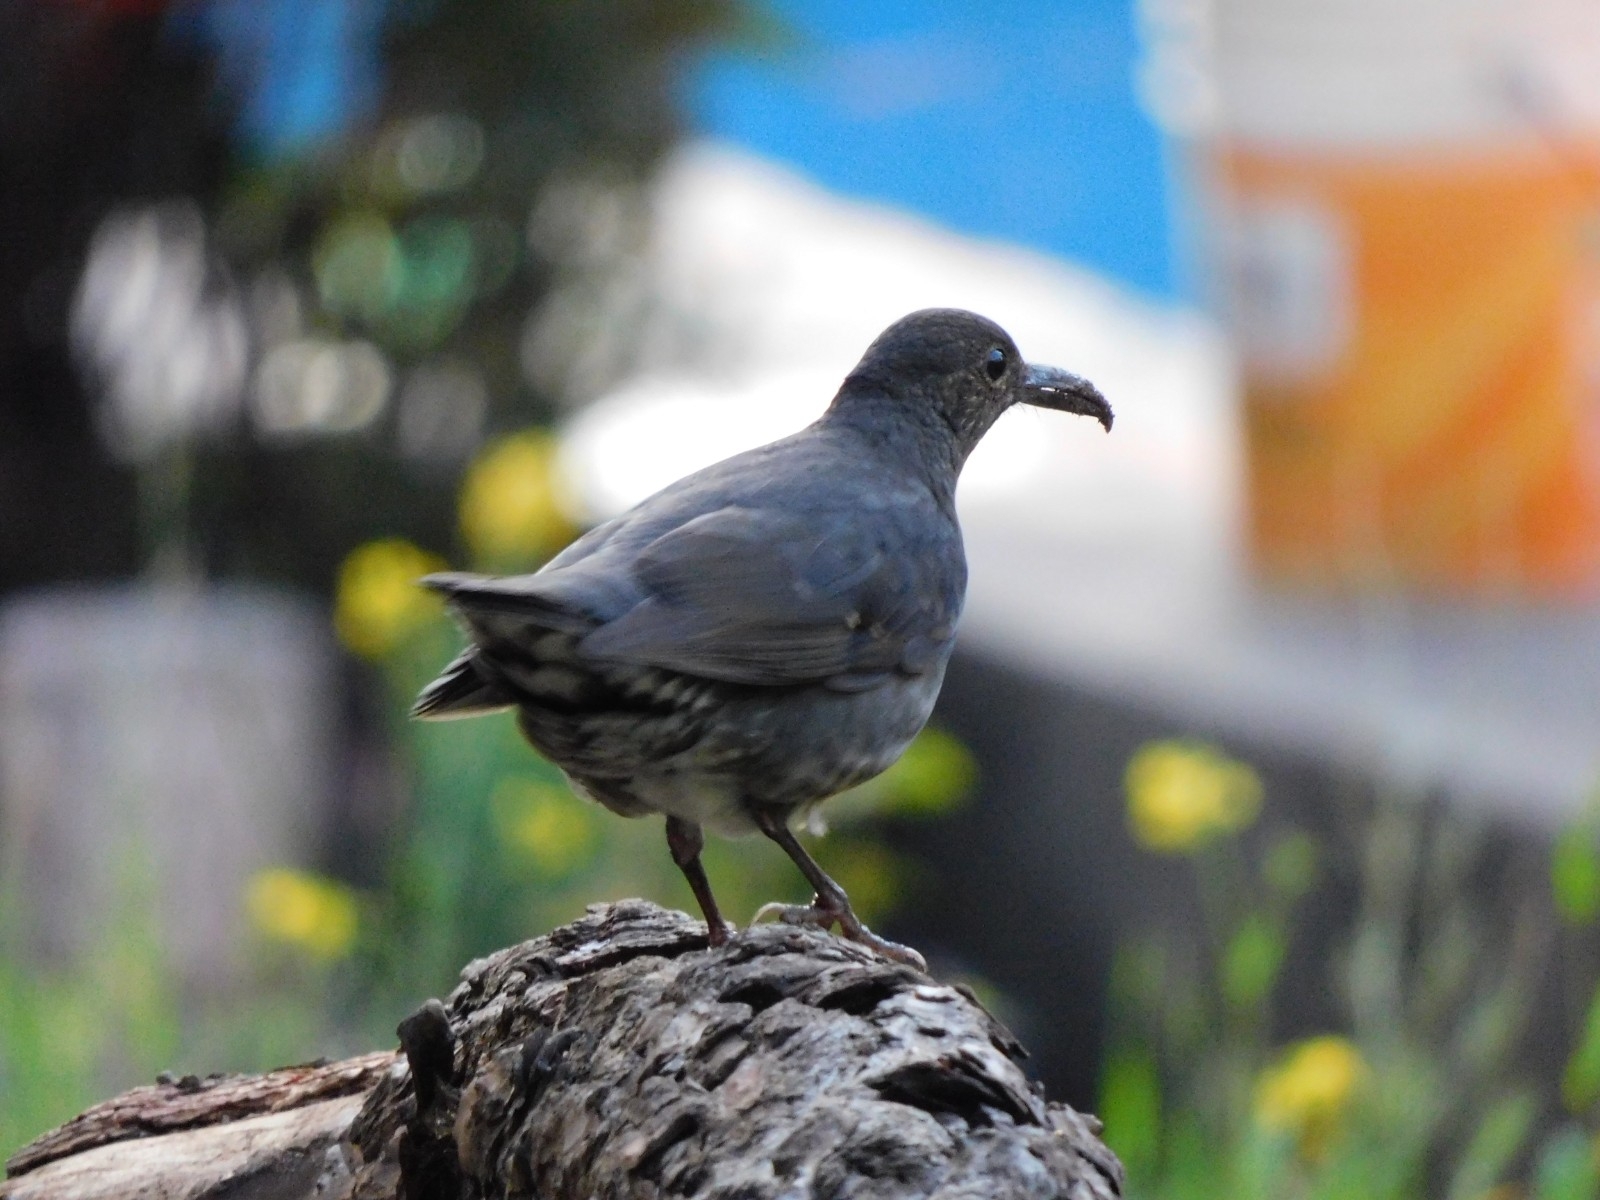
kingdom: Animalia
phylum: Chordata
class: Aves
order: Passeriformes
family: Turdidae
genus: Zoothera
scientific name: Zoothera monticola
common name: Long-billed thrush
